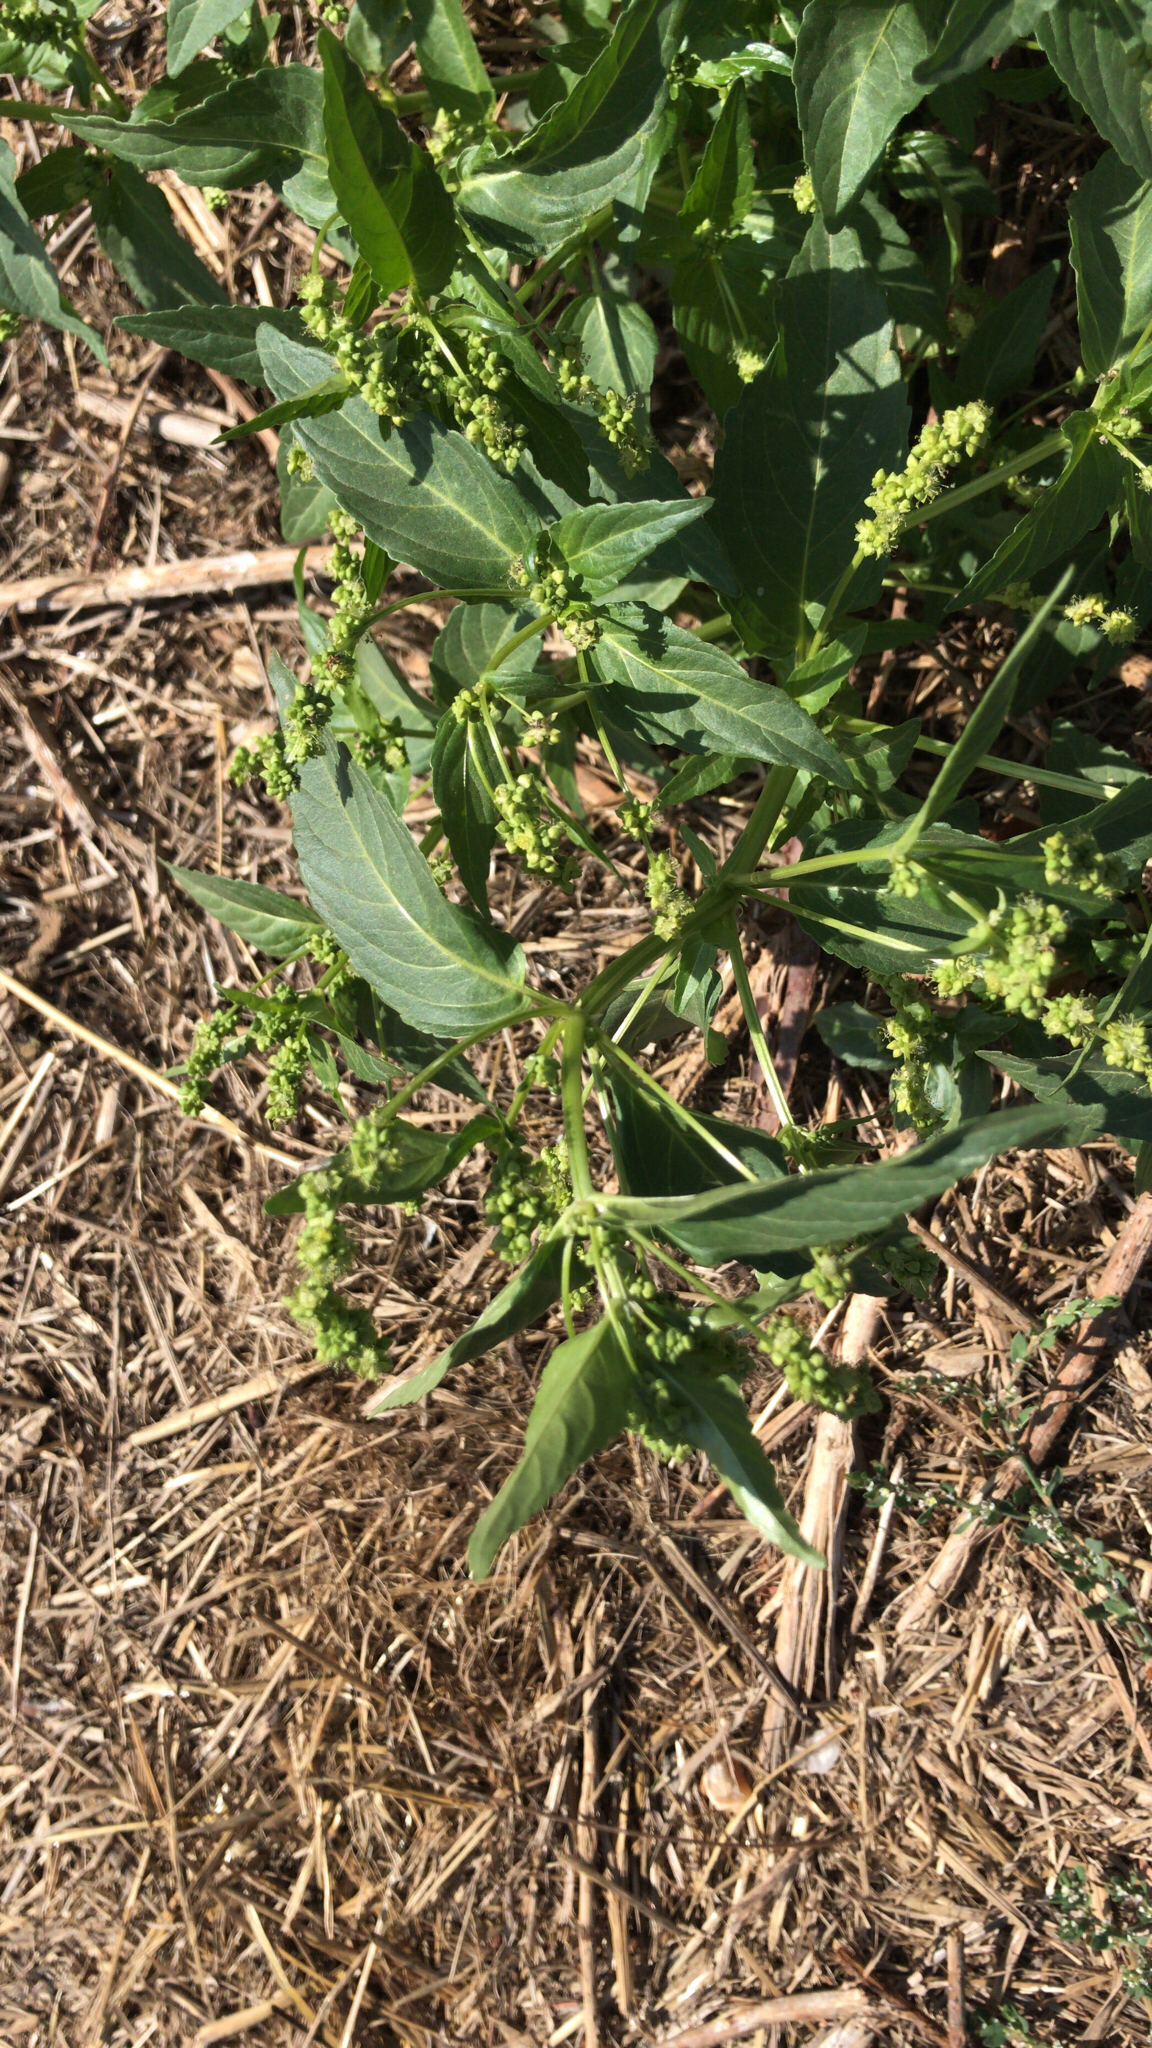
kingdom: Plantae
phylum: Tracheophyta
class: Magnoliopsida
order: Malpighiales
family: Euphorbiaceae
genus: Mercurialis
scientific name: Mercurialis annua
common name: Annual mercury
